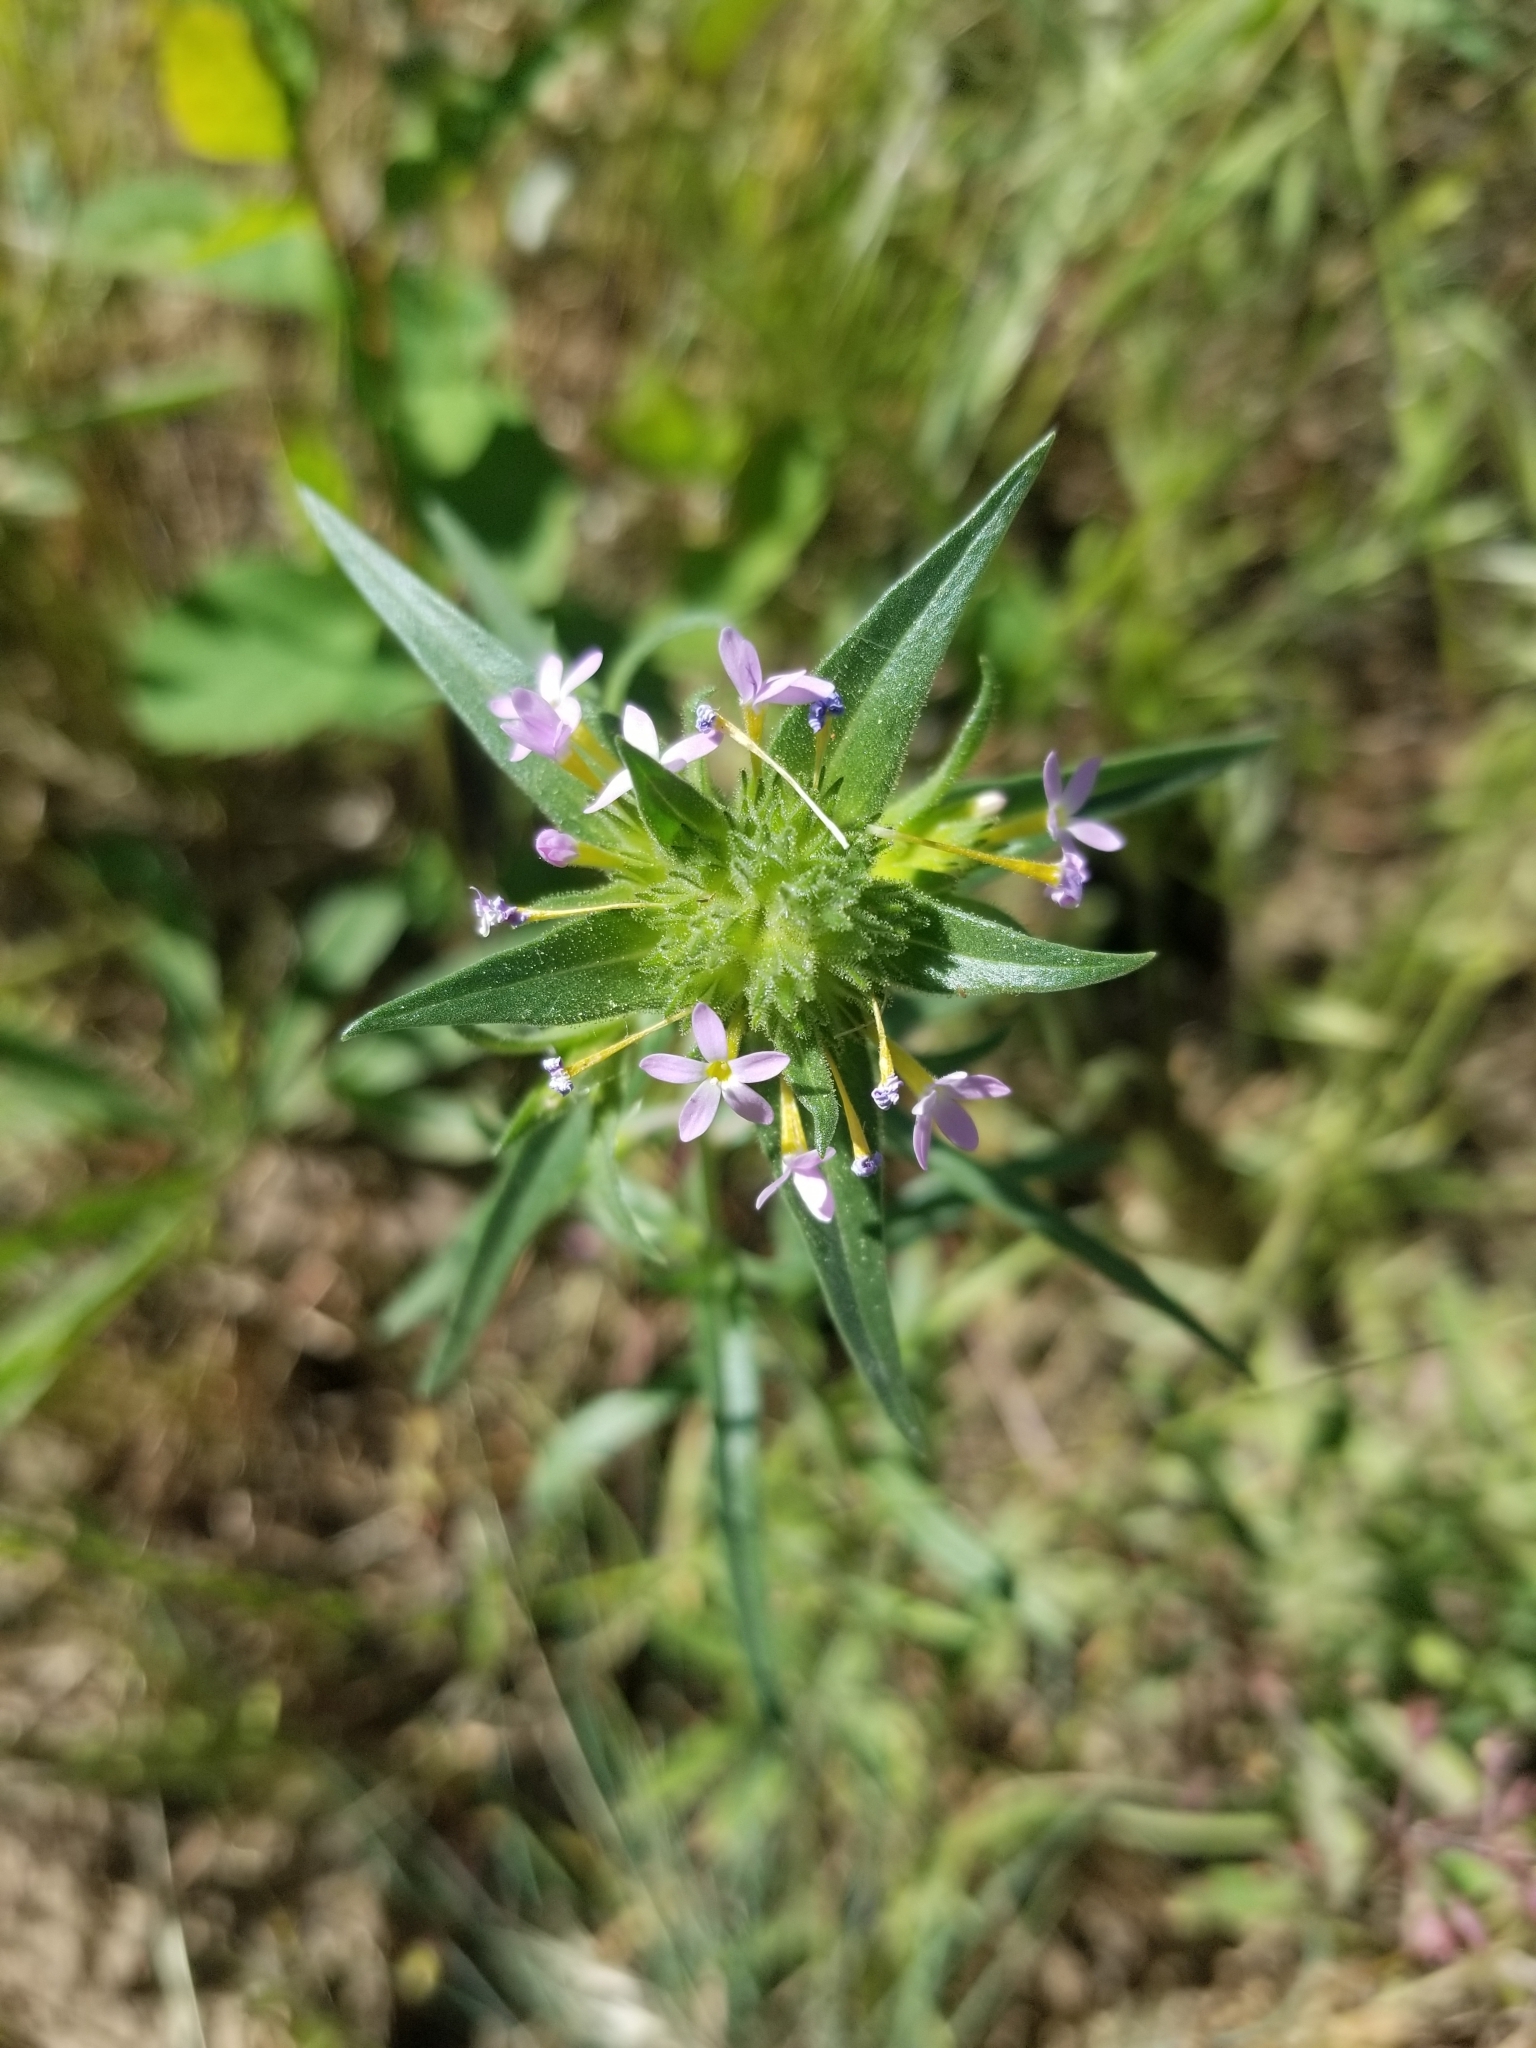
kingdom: Plantae
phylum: Tracheophyta
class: Magnoliopsida
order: Ericales
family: Polemoniaceae
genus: Collomia
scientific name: Collomia linearis
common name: Tiny trumpet
